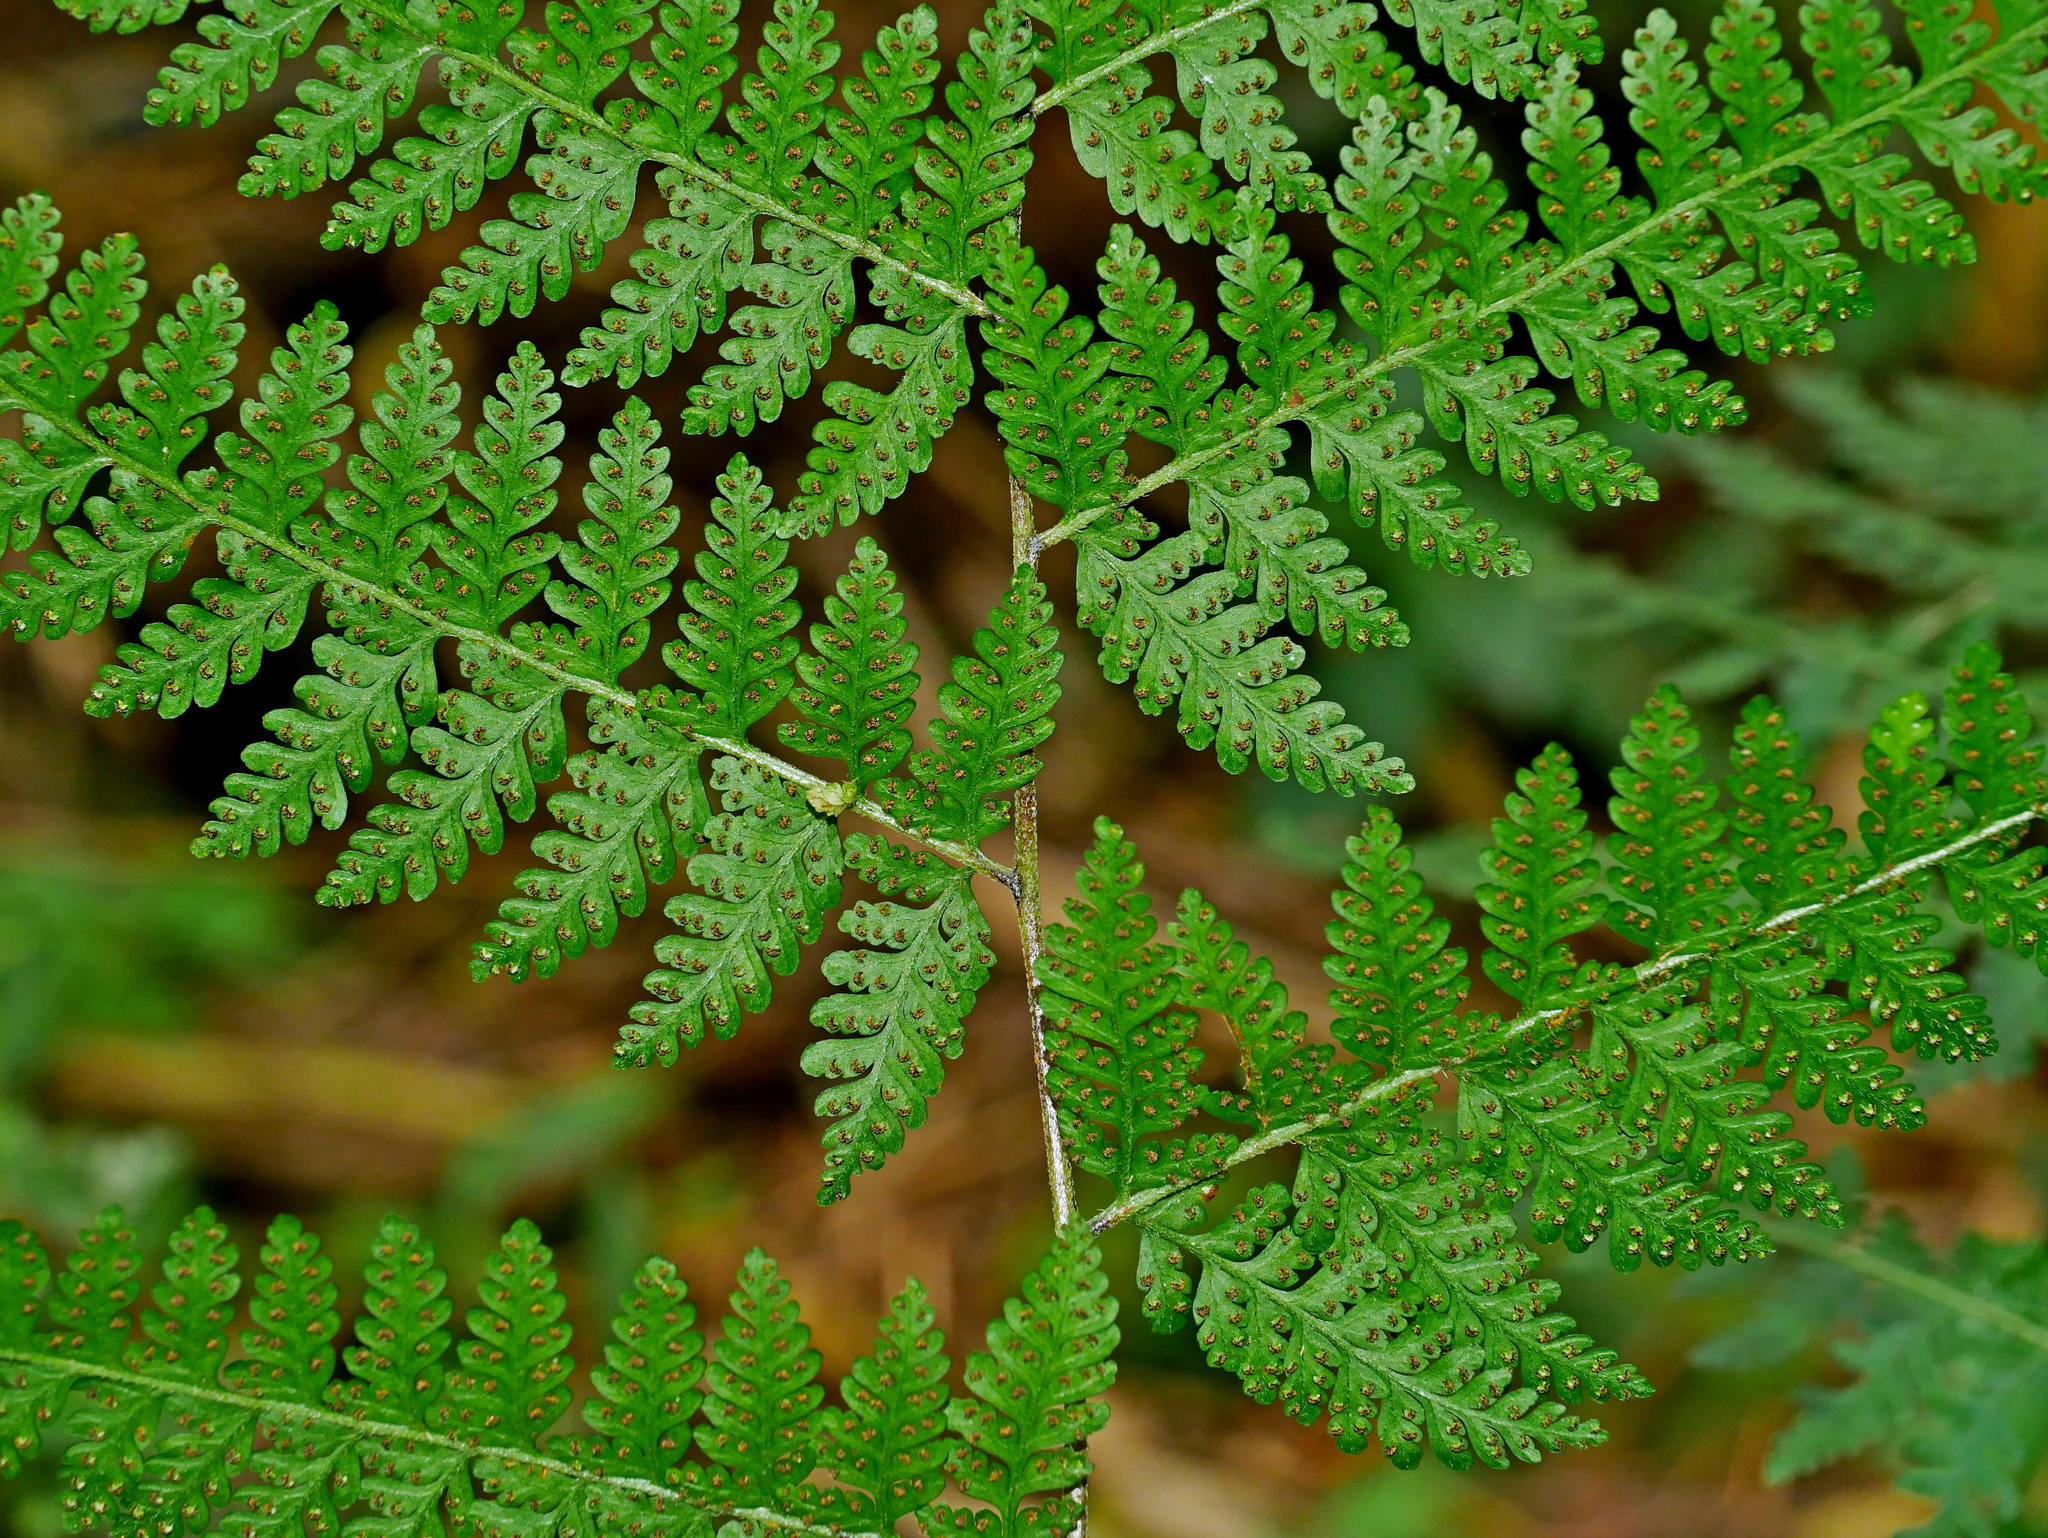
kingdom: Plantae
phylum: Tracheophyta
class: Polypodiopsida
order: Polypodiales
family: Dennstaedtiaceae
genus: Microlepia
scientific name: Microlepia tenera
